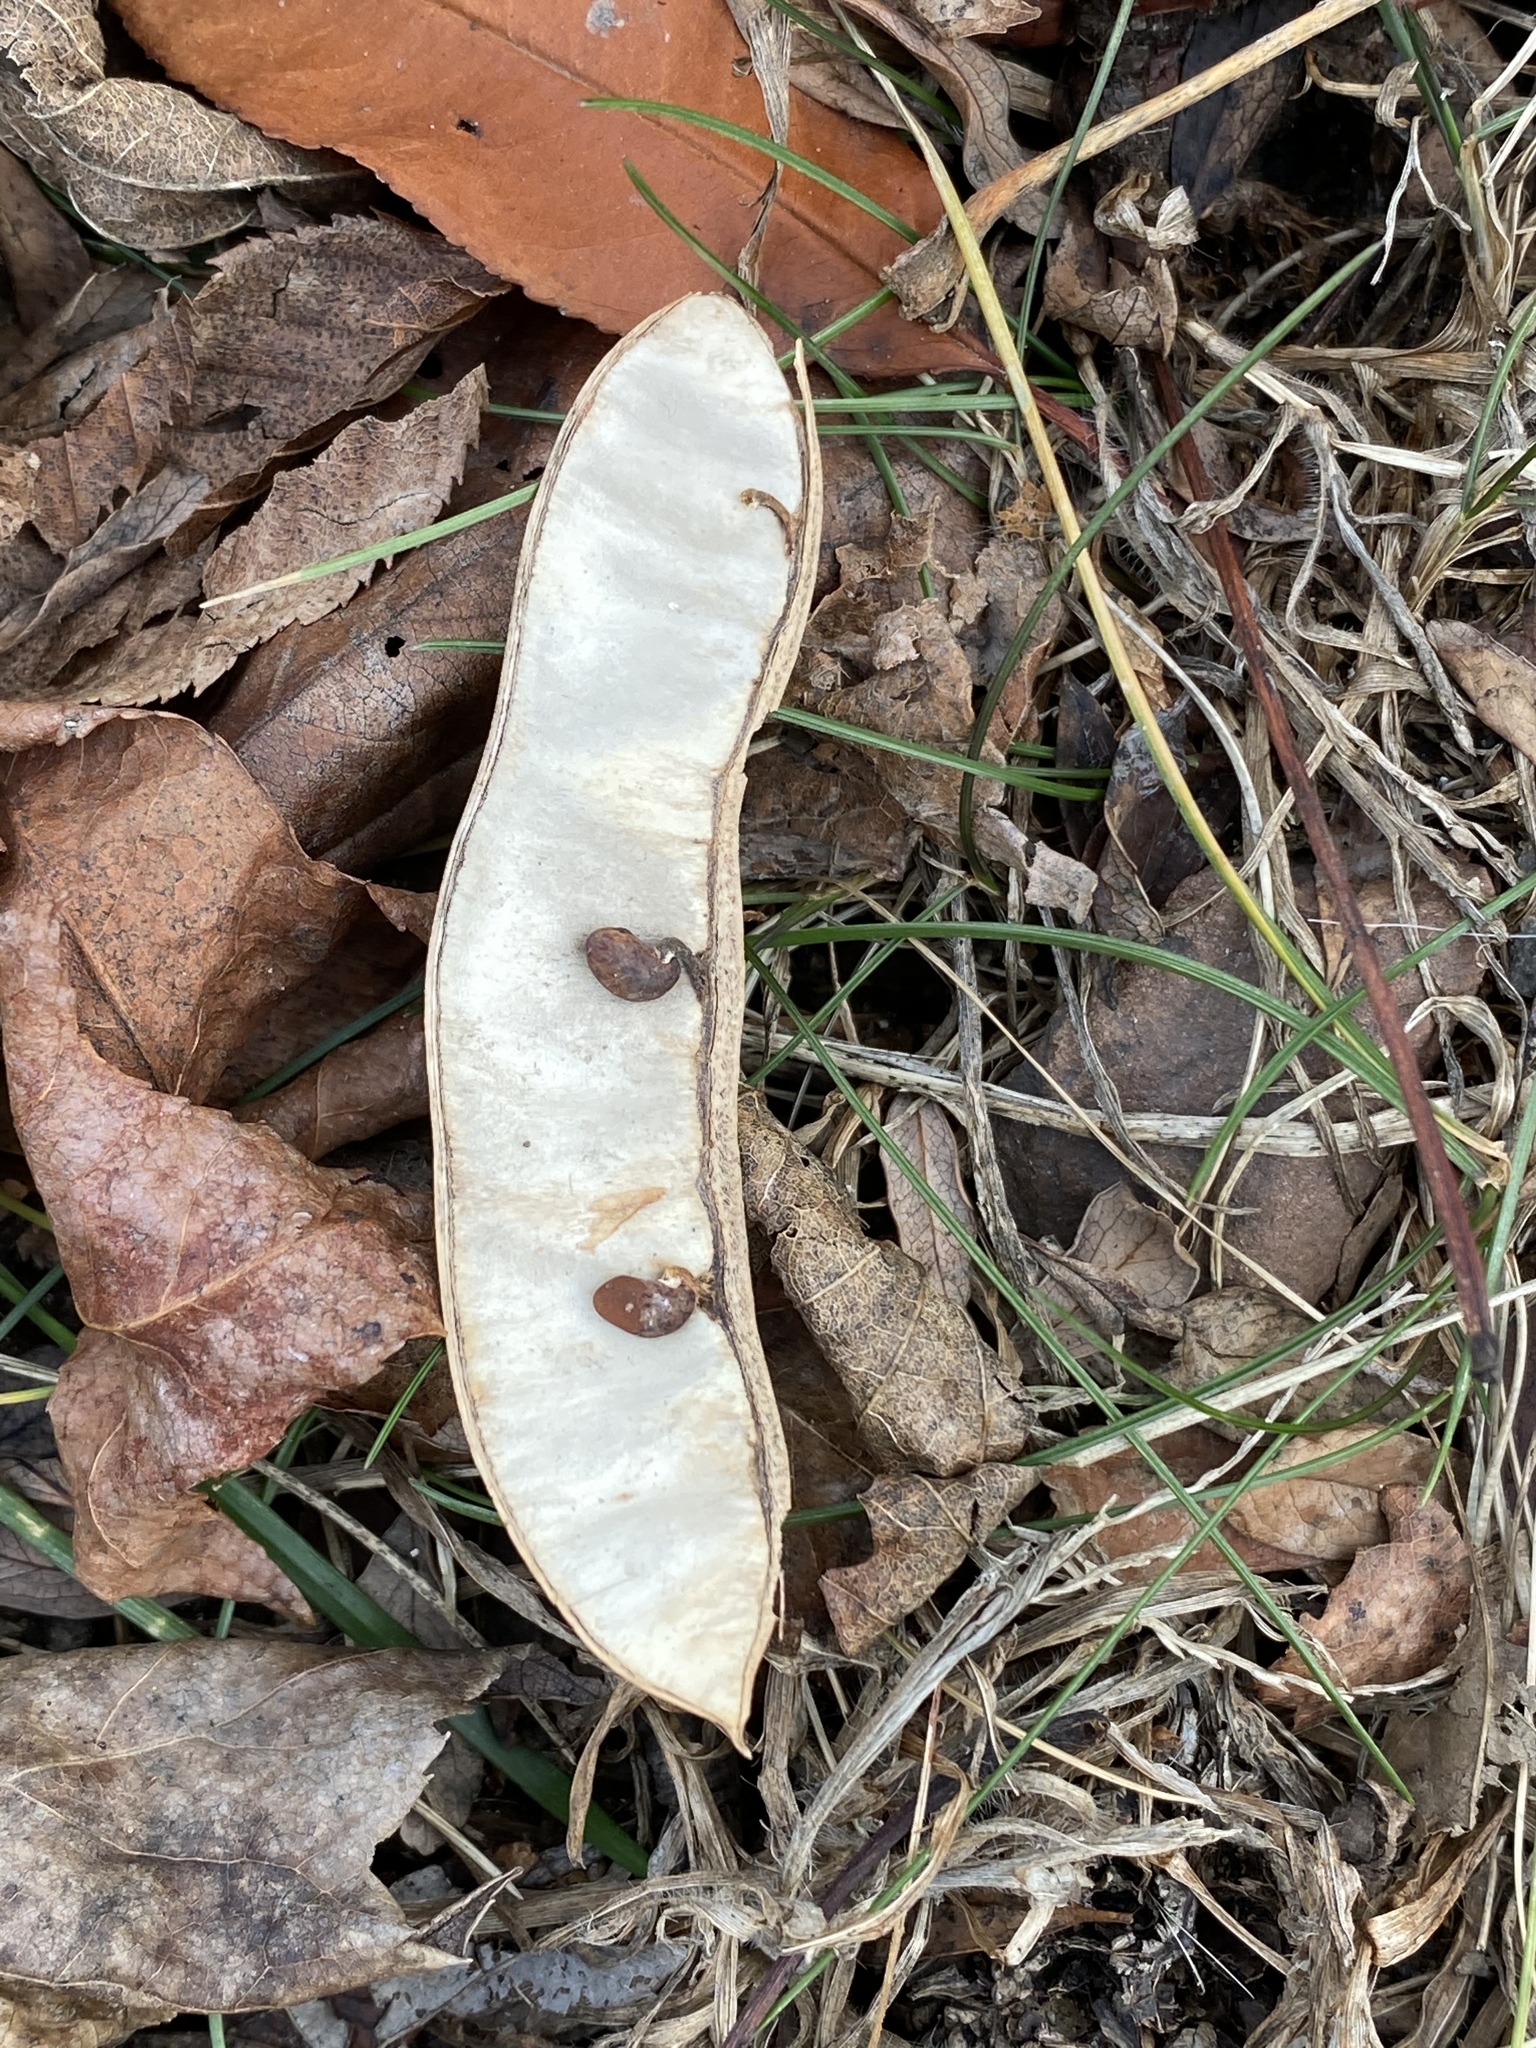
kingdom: Plantae
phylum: Tracheophyta
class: Magnoliopsida
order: Fabales
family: Fabaceae
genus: Robinia
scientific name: Robinia pseudoacacia
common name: Black locust
